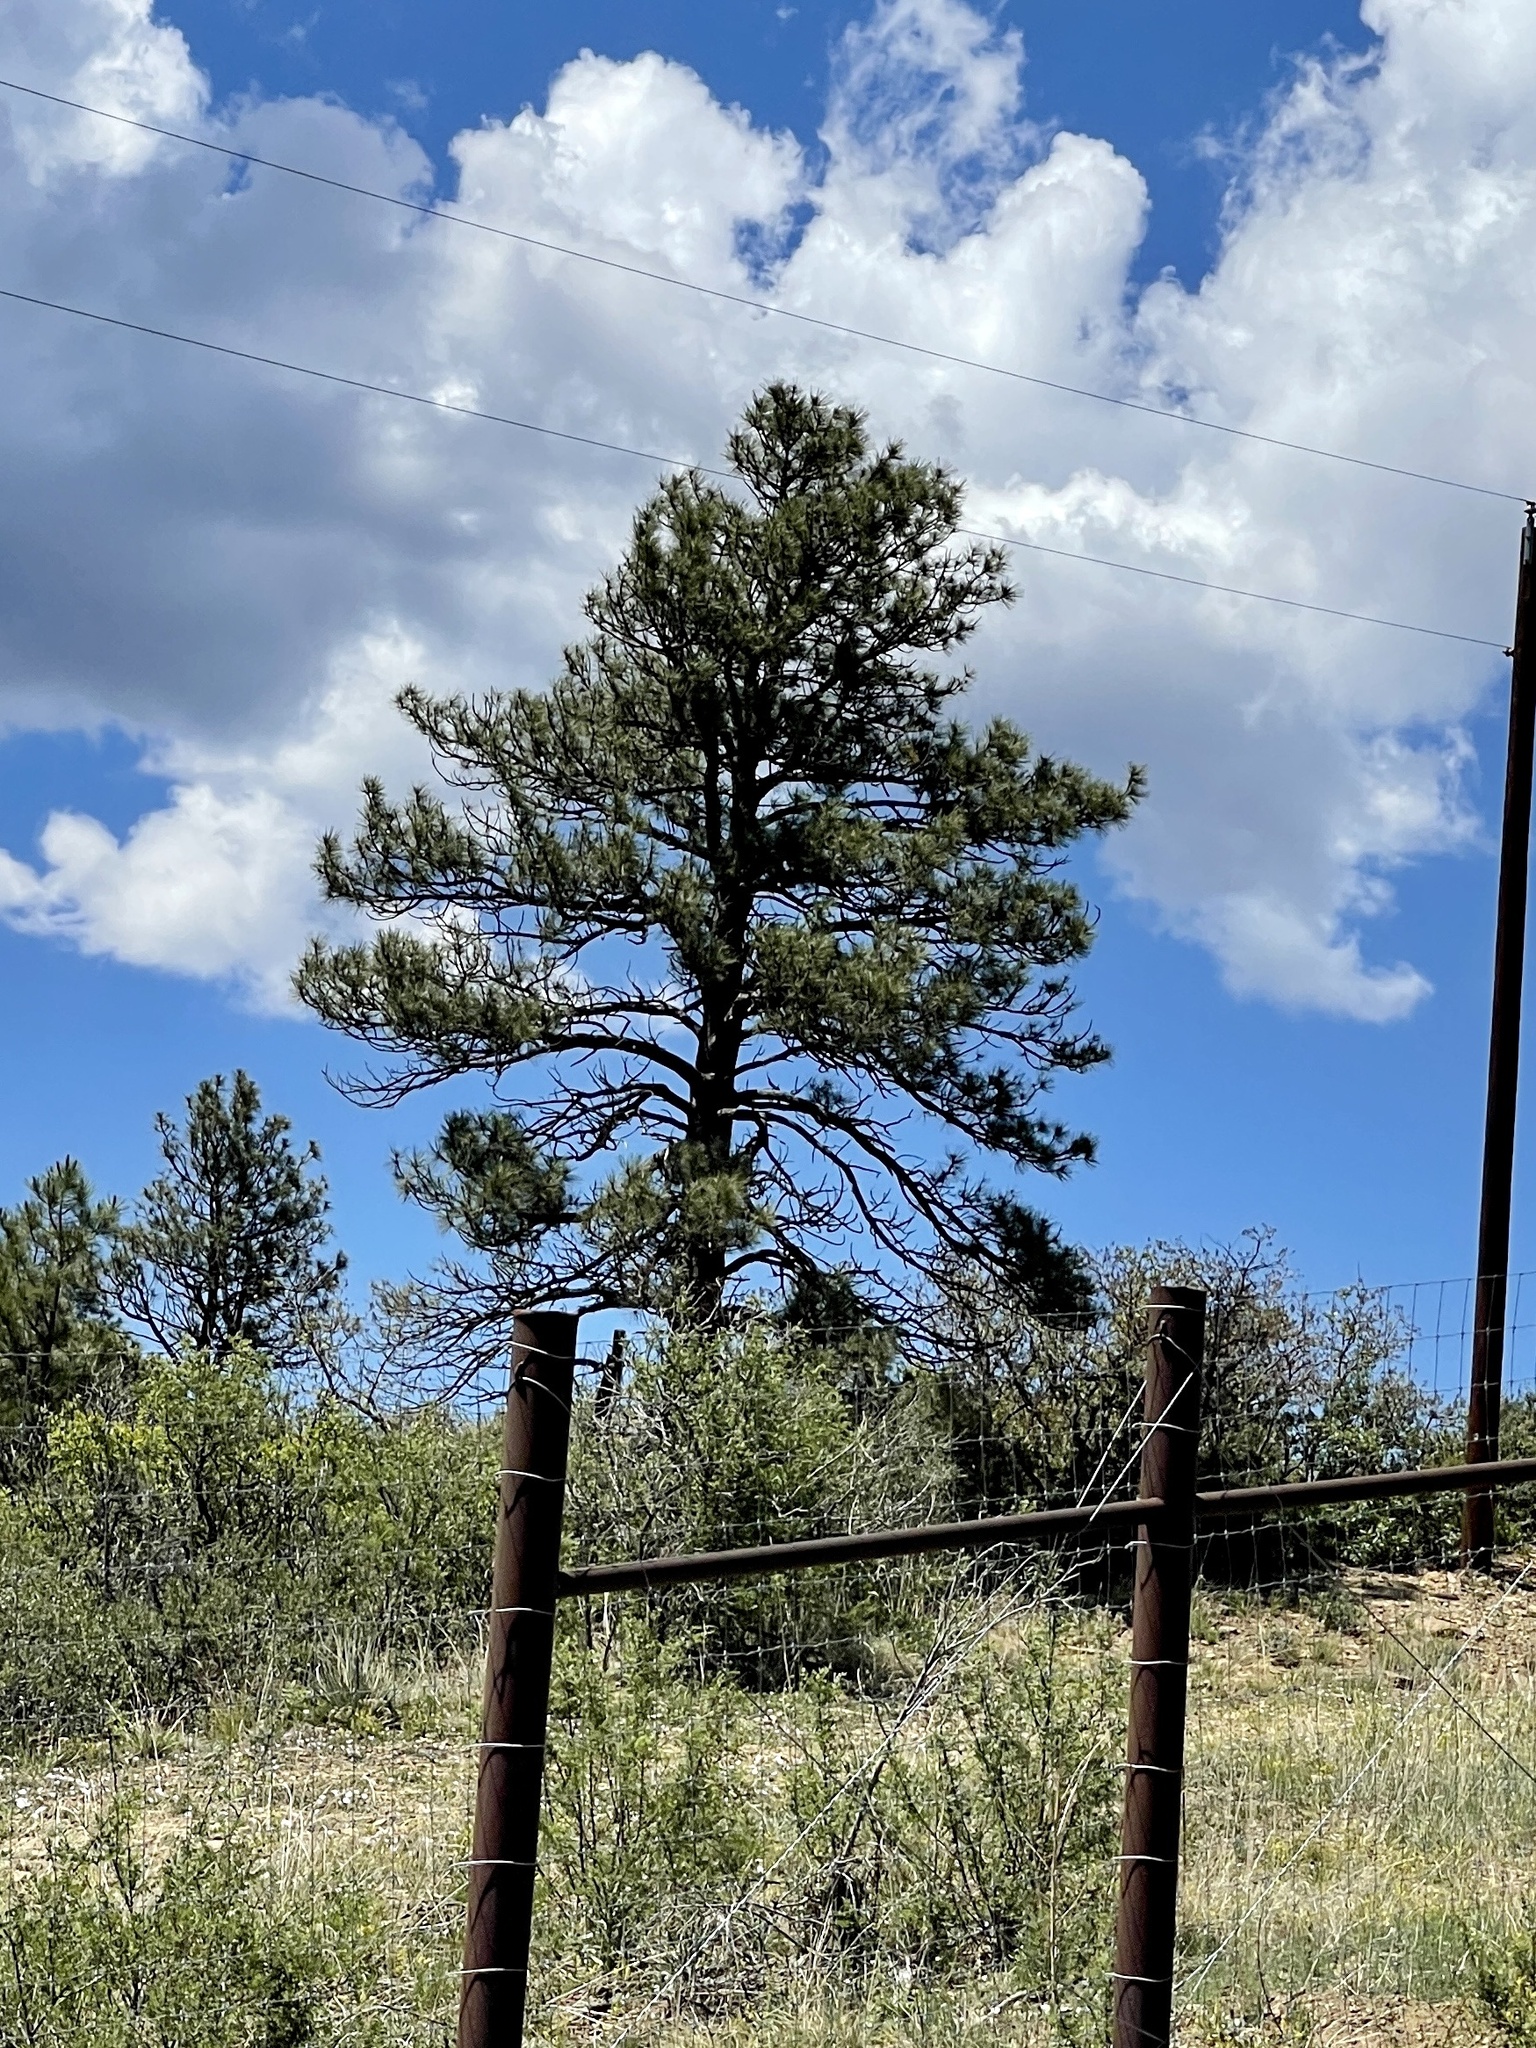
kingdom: Plantae
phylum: Tracheophyta
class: Pinopsida
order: Pinales
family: Pinaceae
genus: Pinus
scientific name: Pinus ponderosa
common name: Western yellow-pine
